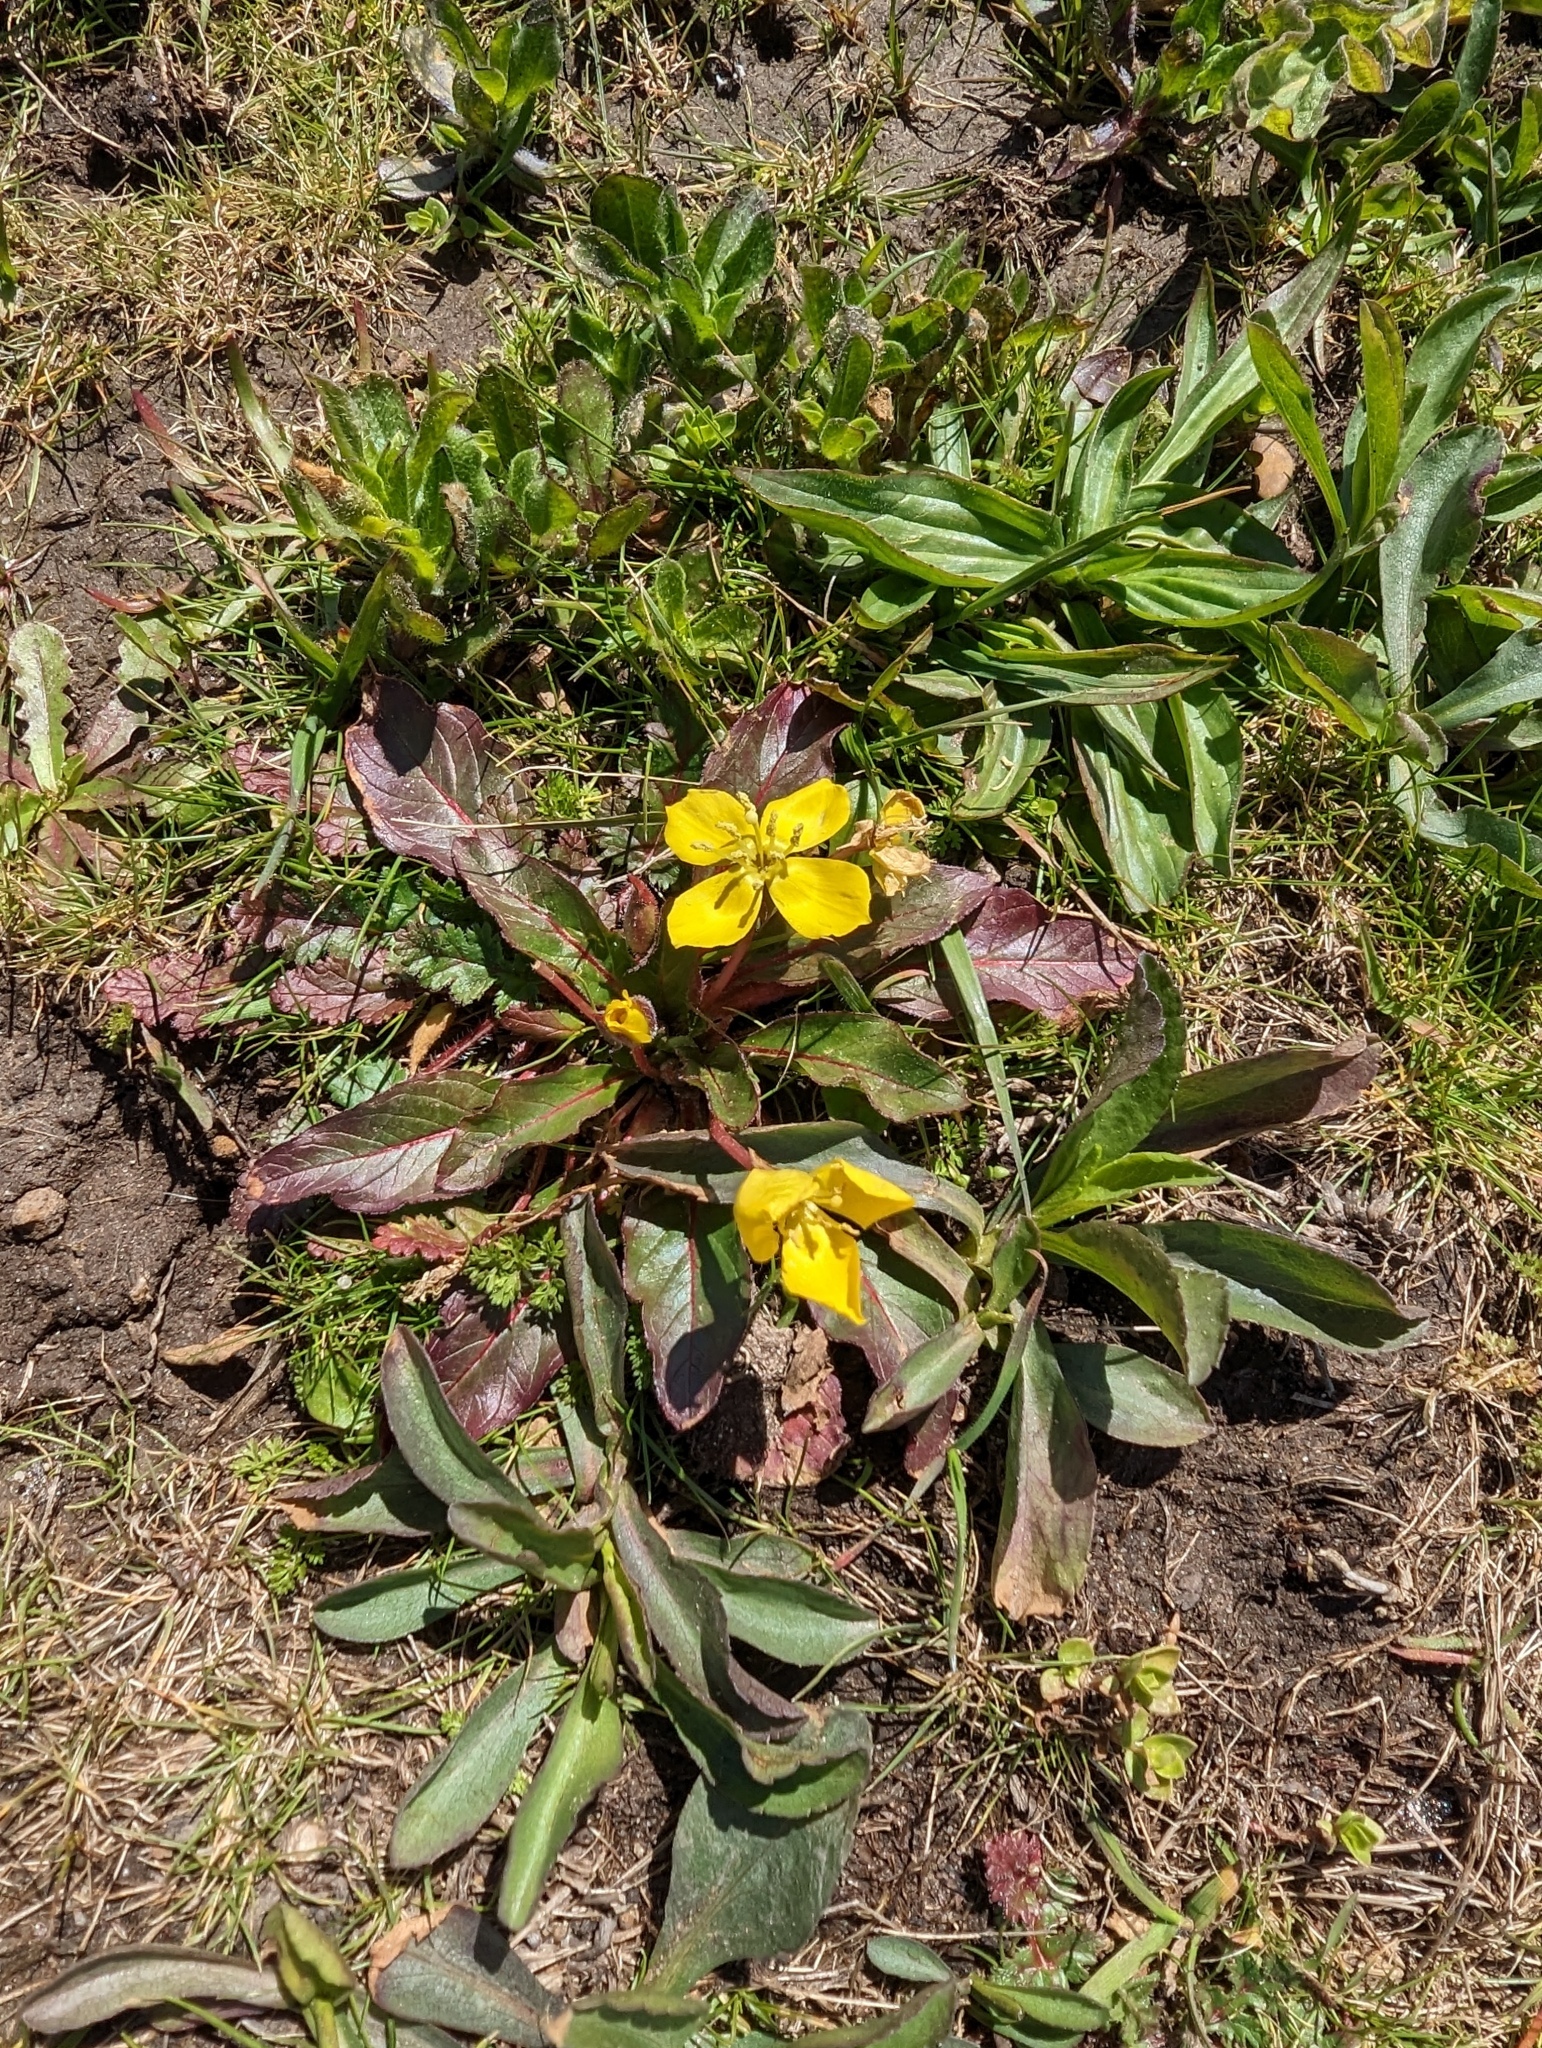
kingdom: Plantae
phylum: Tracheophyta
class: Magnoliopsida
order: Myrtales
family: Onagraceae
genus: Taraxia
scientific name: Taraxia ovata
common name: Goldeneggs
